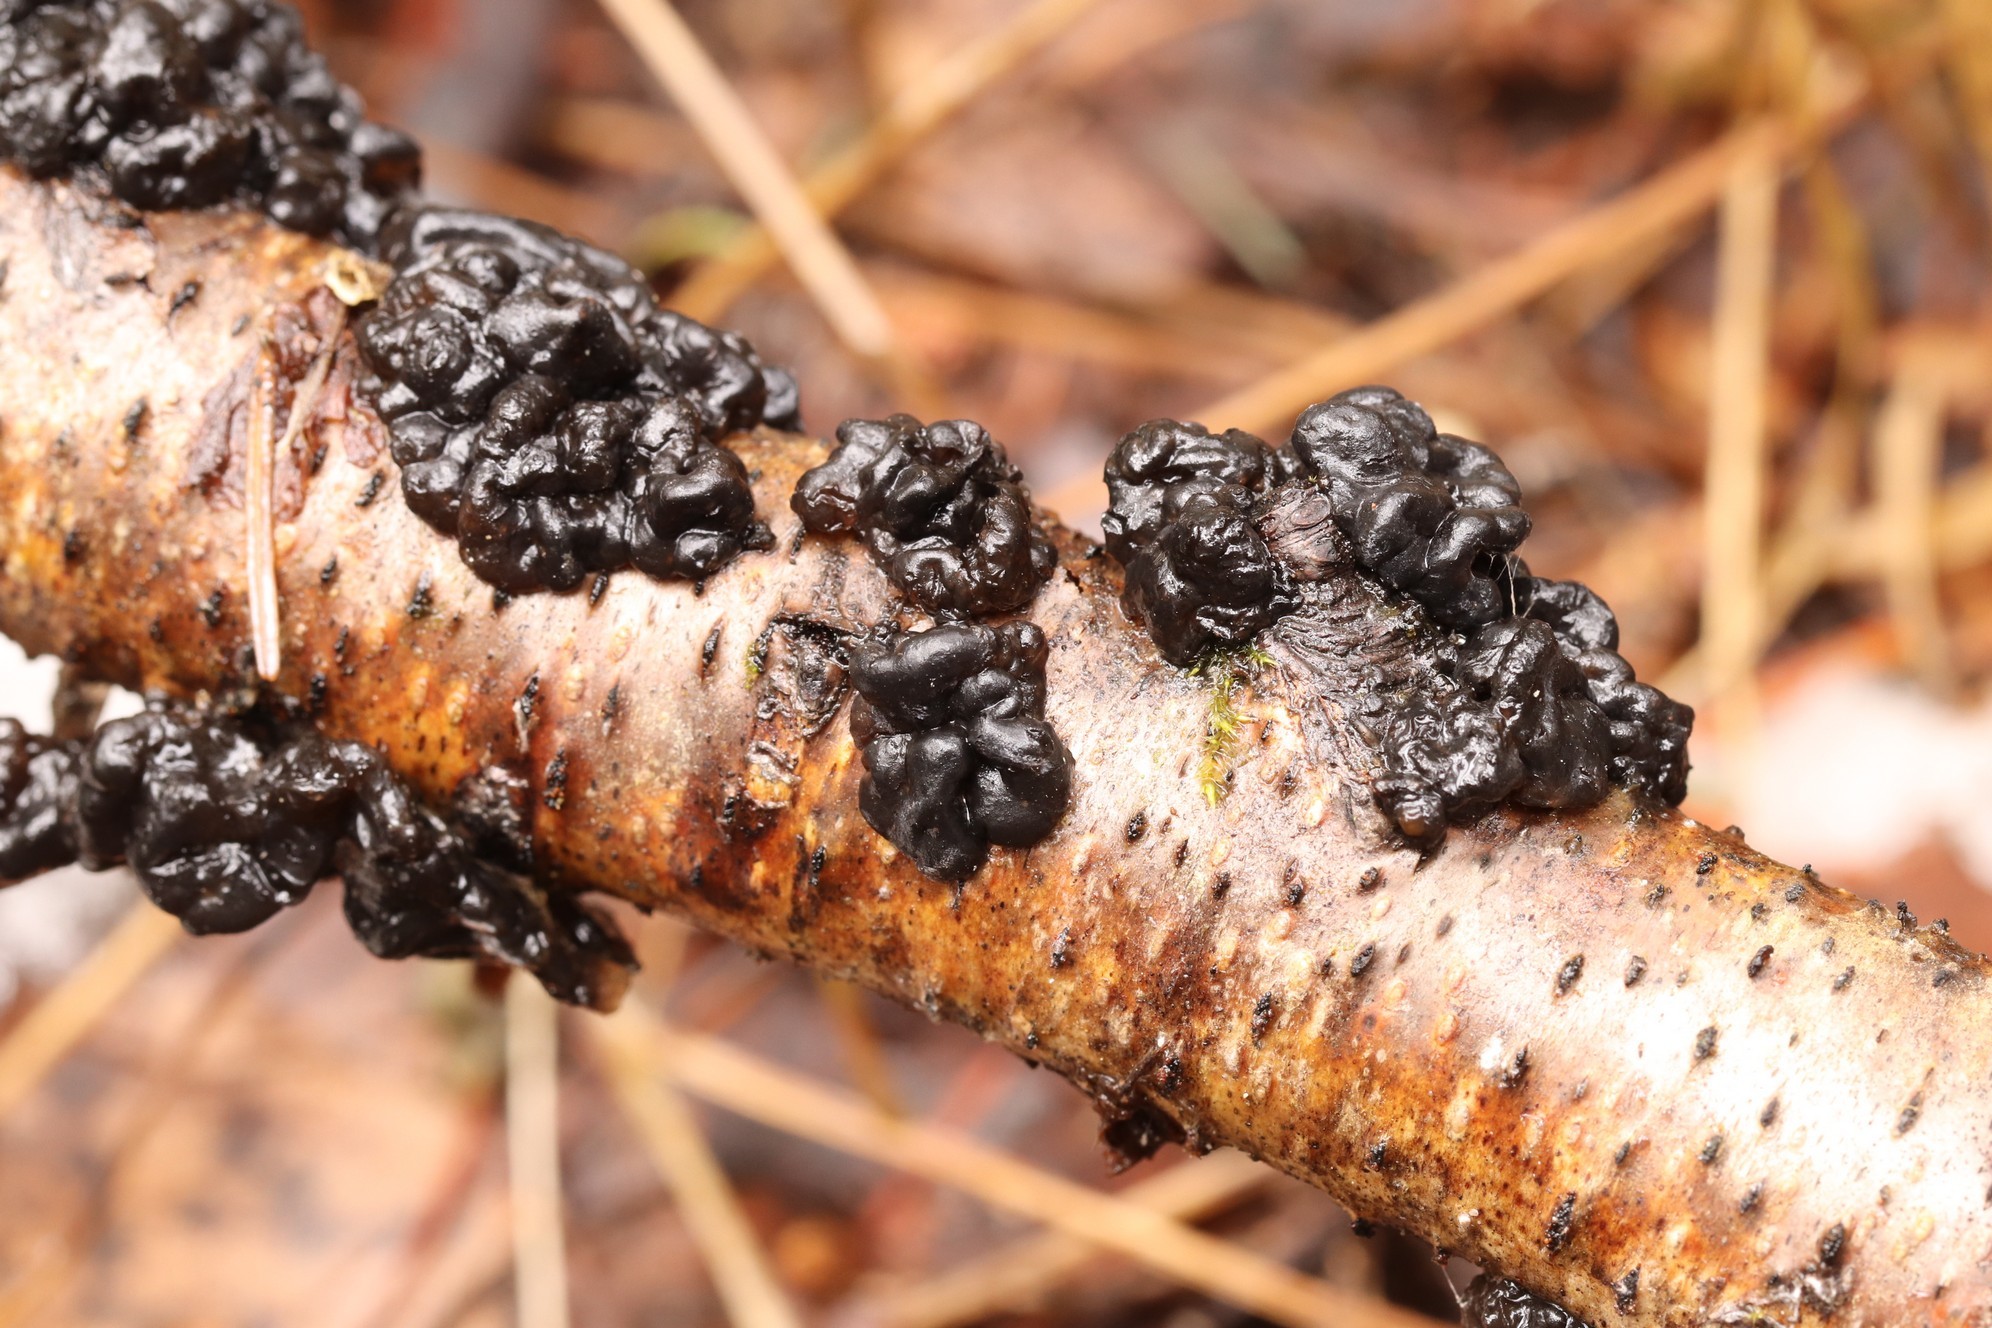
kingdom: Fungi
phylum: Basidiomycota
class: Agaricomycetes
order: Auriculariales
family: Auriculariaceae
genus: Exidia
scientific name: Exidia glandulosa
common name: Witches' butter
